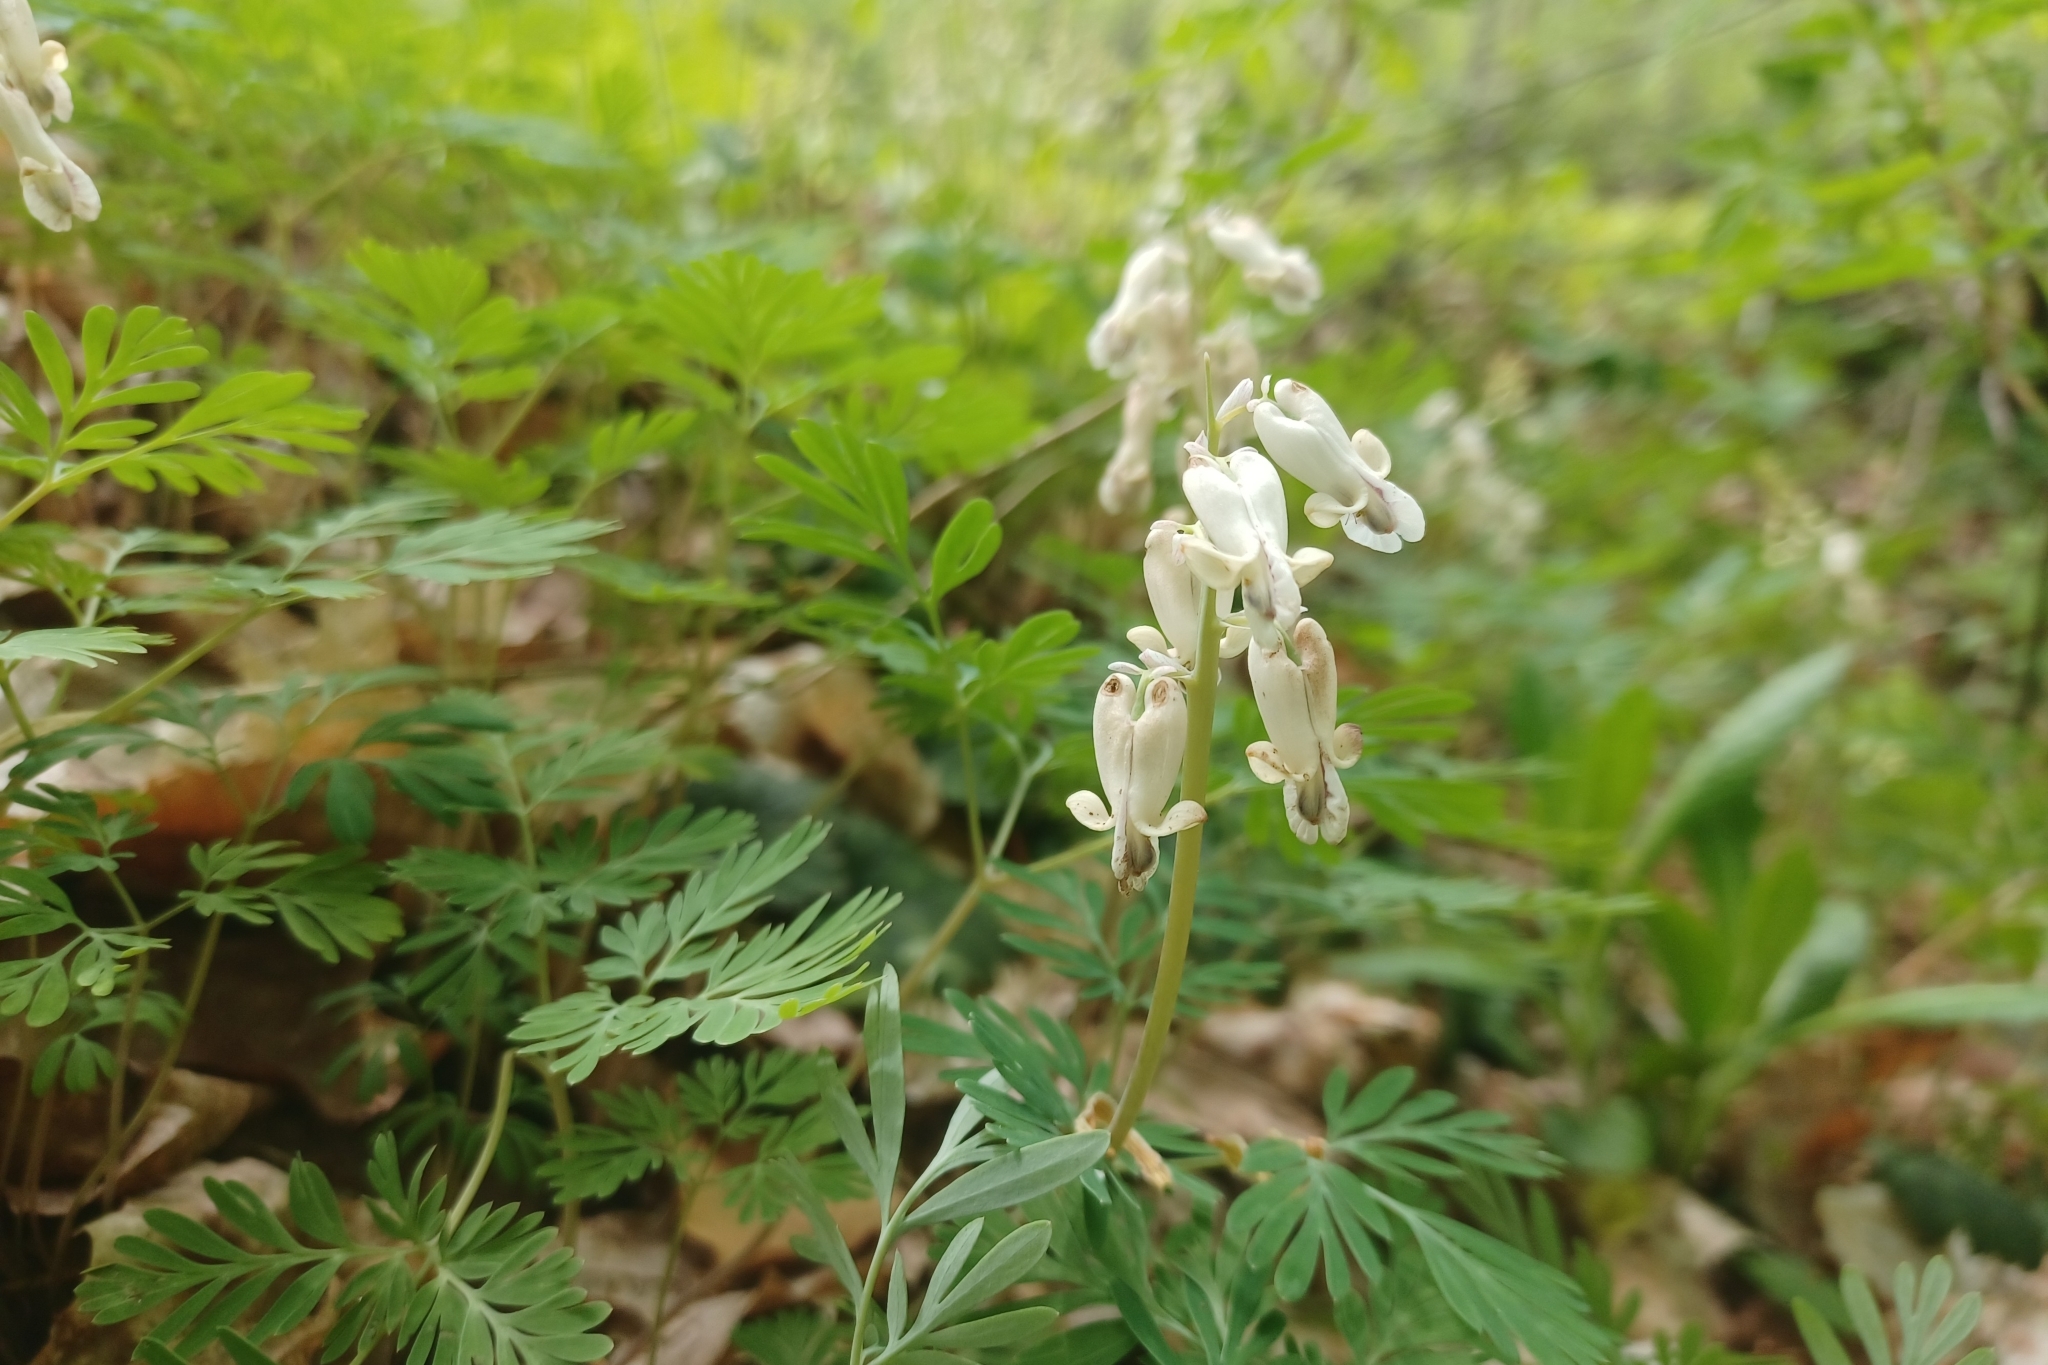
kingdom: Plantae
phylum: Tracheophyta
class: Magnoliopsida
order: Ranunculales
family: Papaveraceae
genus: Dicentra
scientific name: Dicentra canadensis
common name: Squirrel-corn
